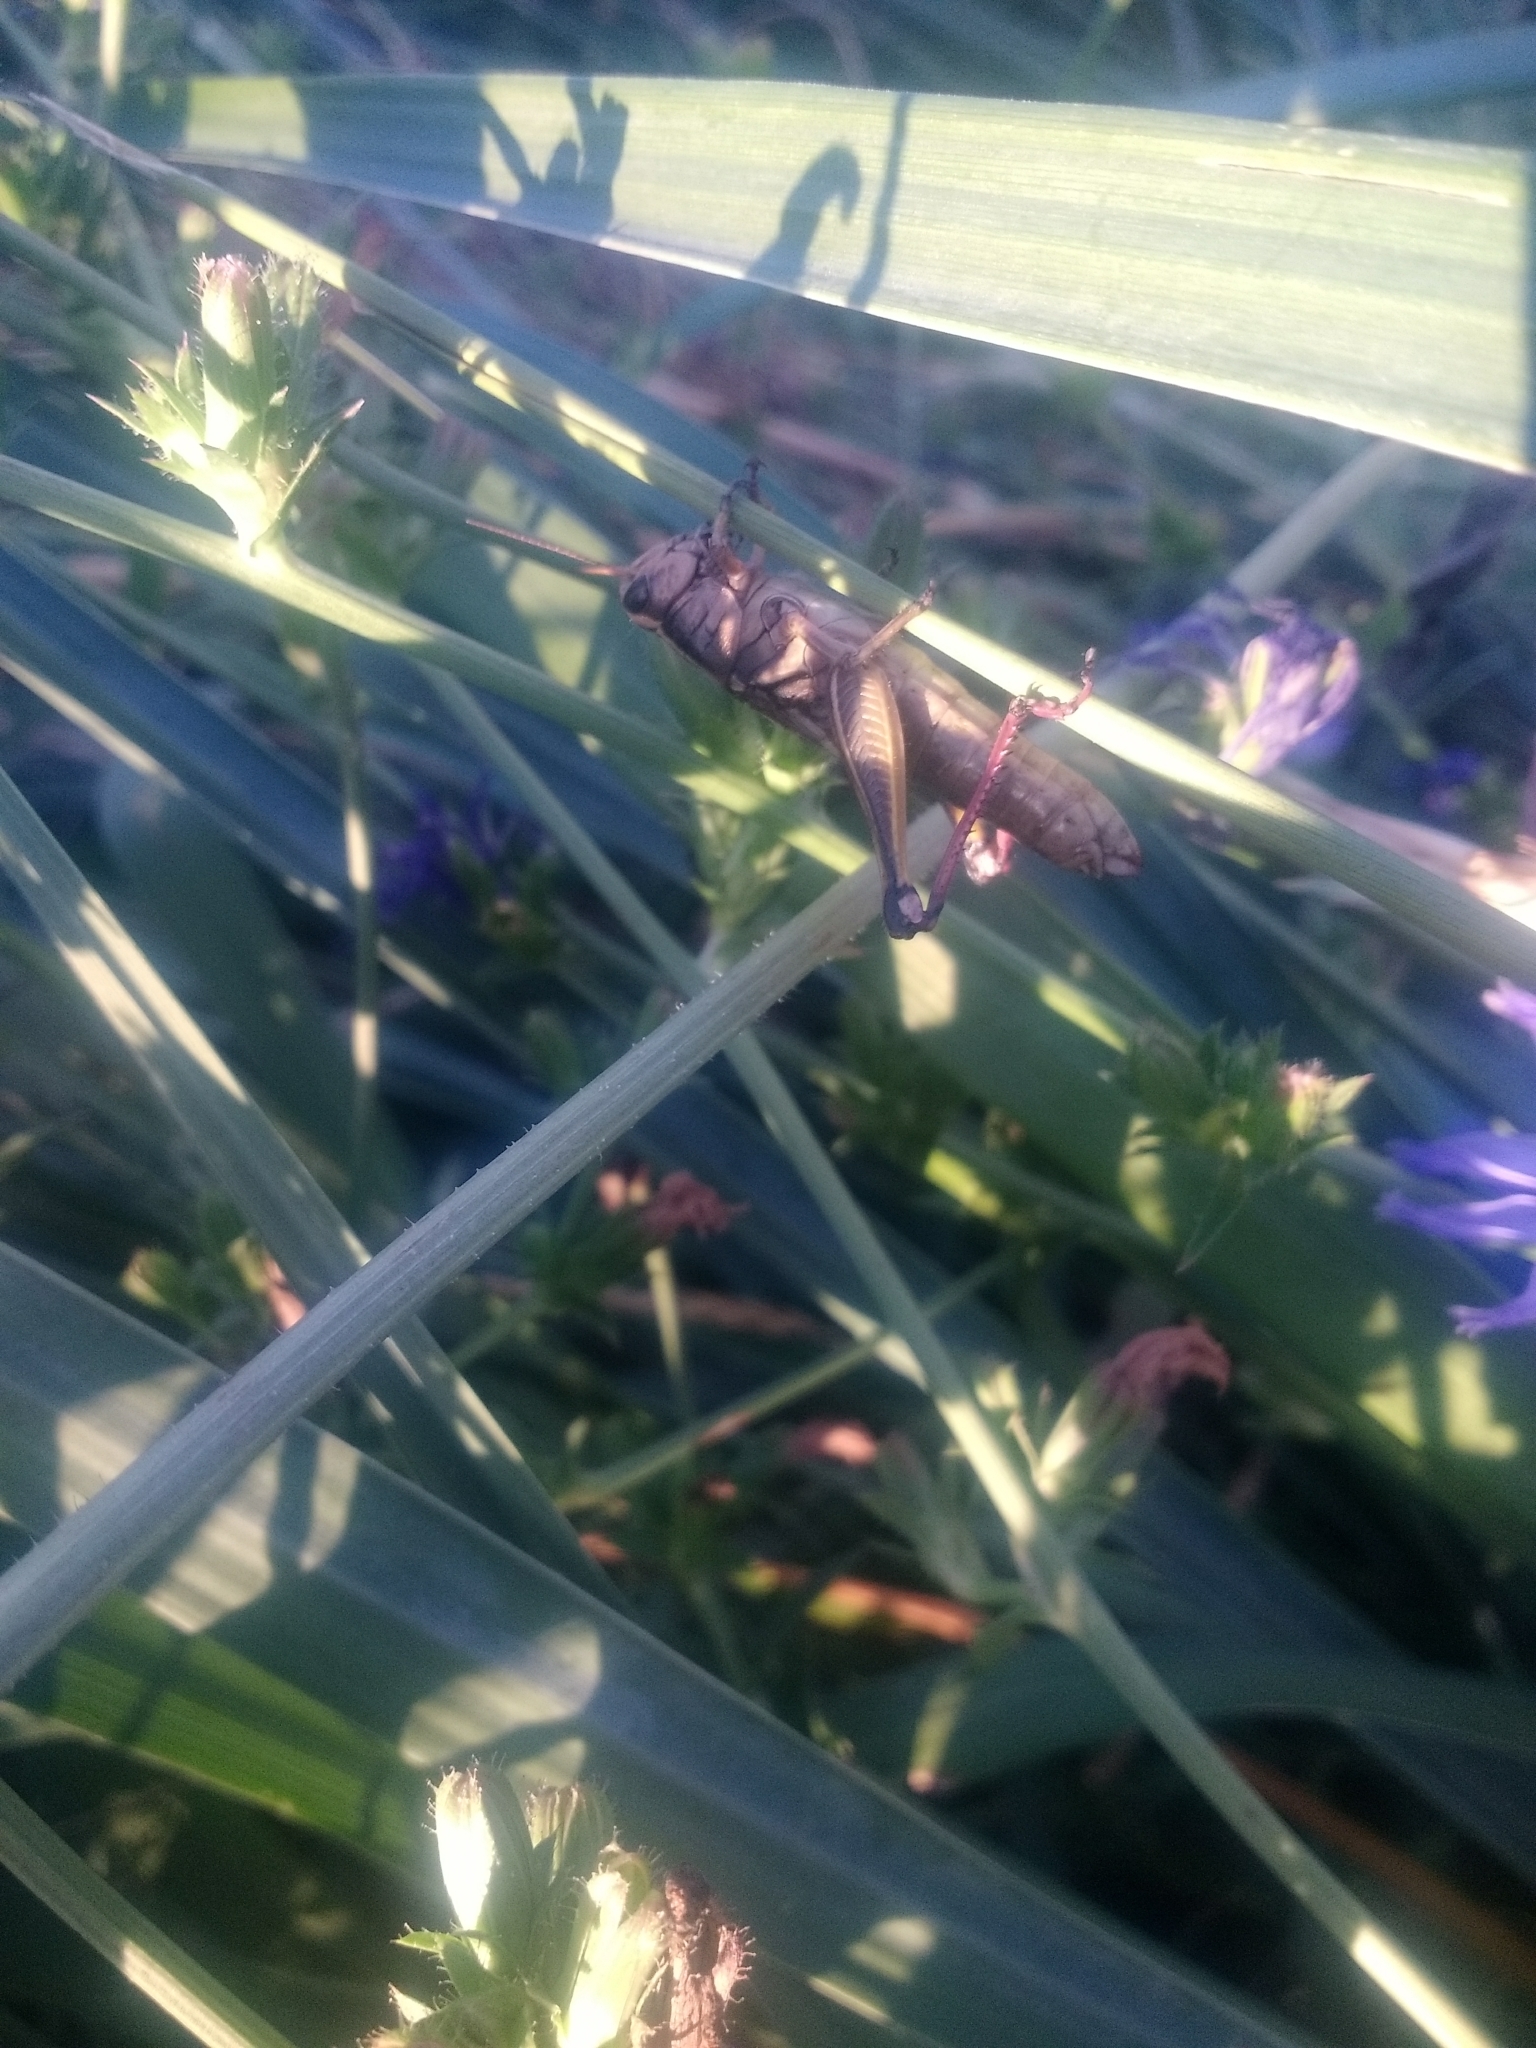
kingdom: Animalia
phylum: Arthropoda
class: Insecta
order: Orthoptera
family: Acrididae
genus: Melanoplus
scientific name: Melanoplus bivittatus
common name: Two-striped grasshopper
